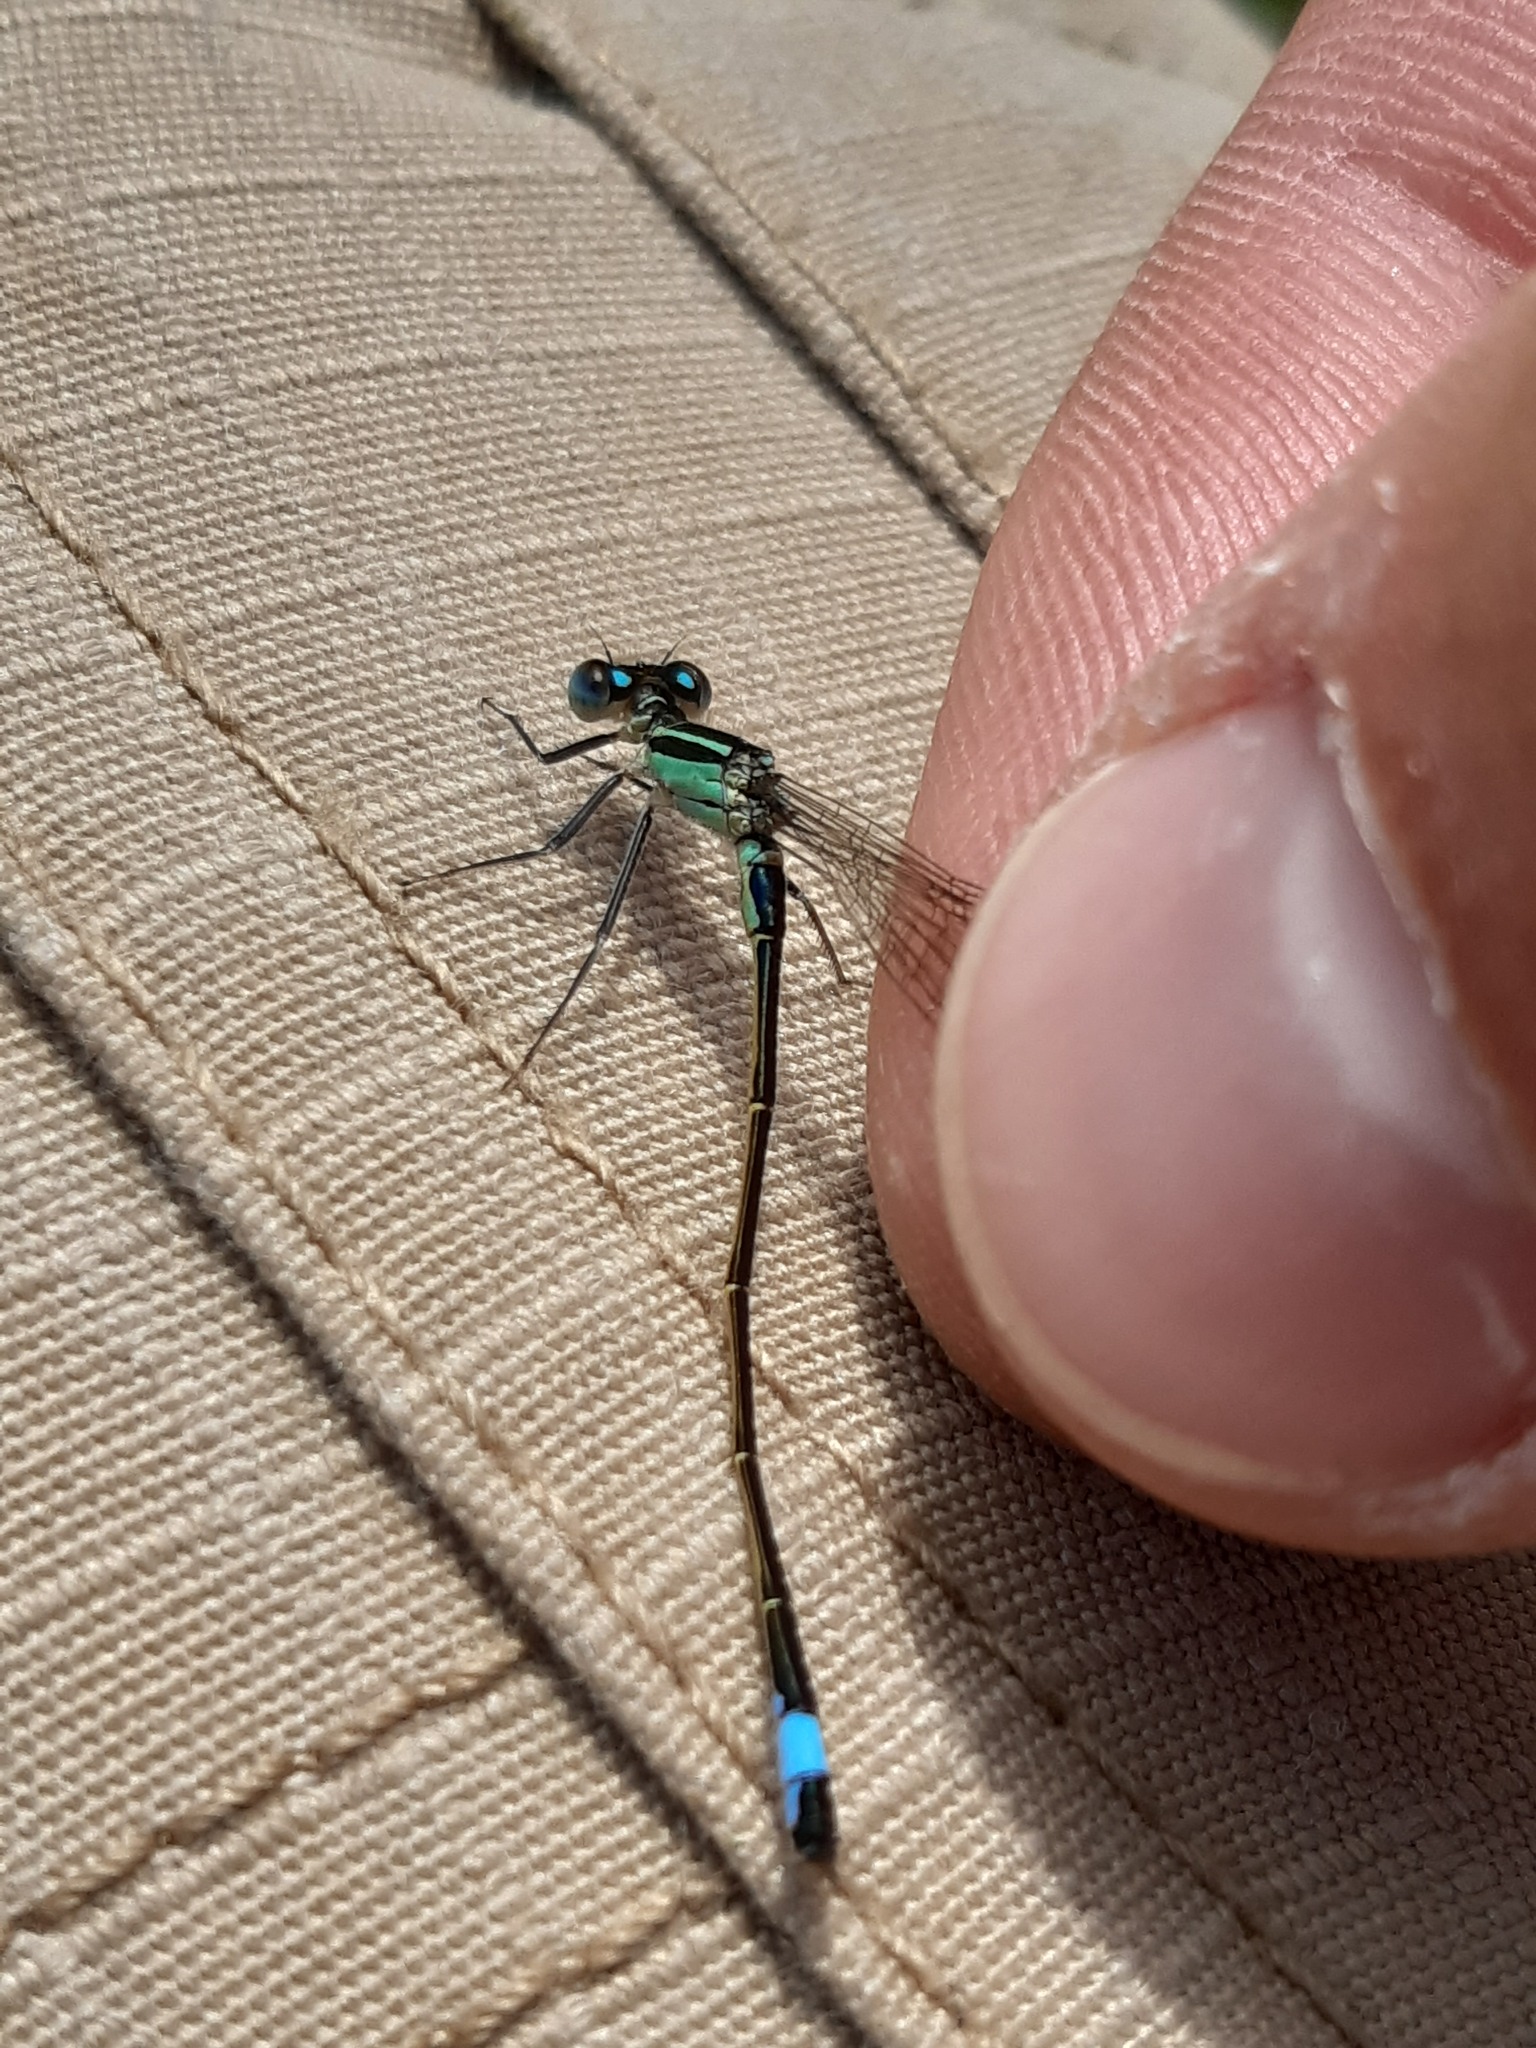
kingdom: Animalia
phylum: Arthropoda
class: Insecta
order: Odonata
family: Coenagrionidae
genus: Ischnura
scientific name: Ischnura elegans
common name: Blue-tailed damselfly
